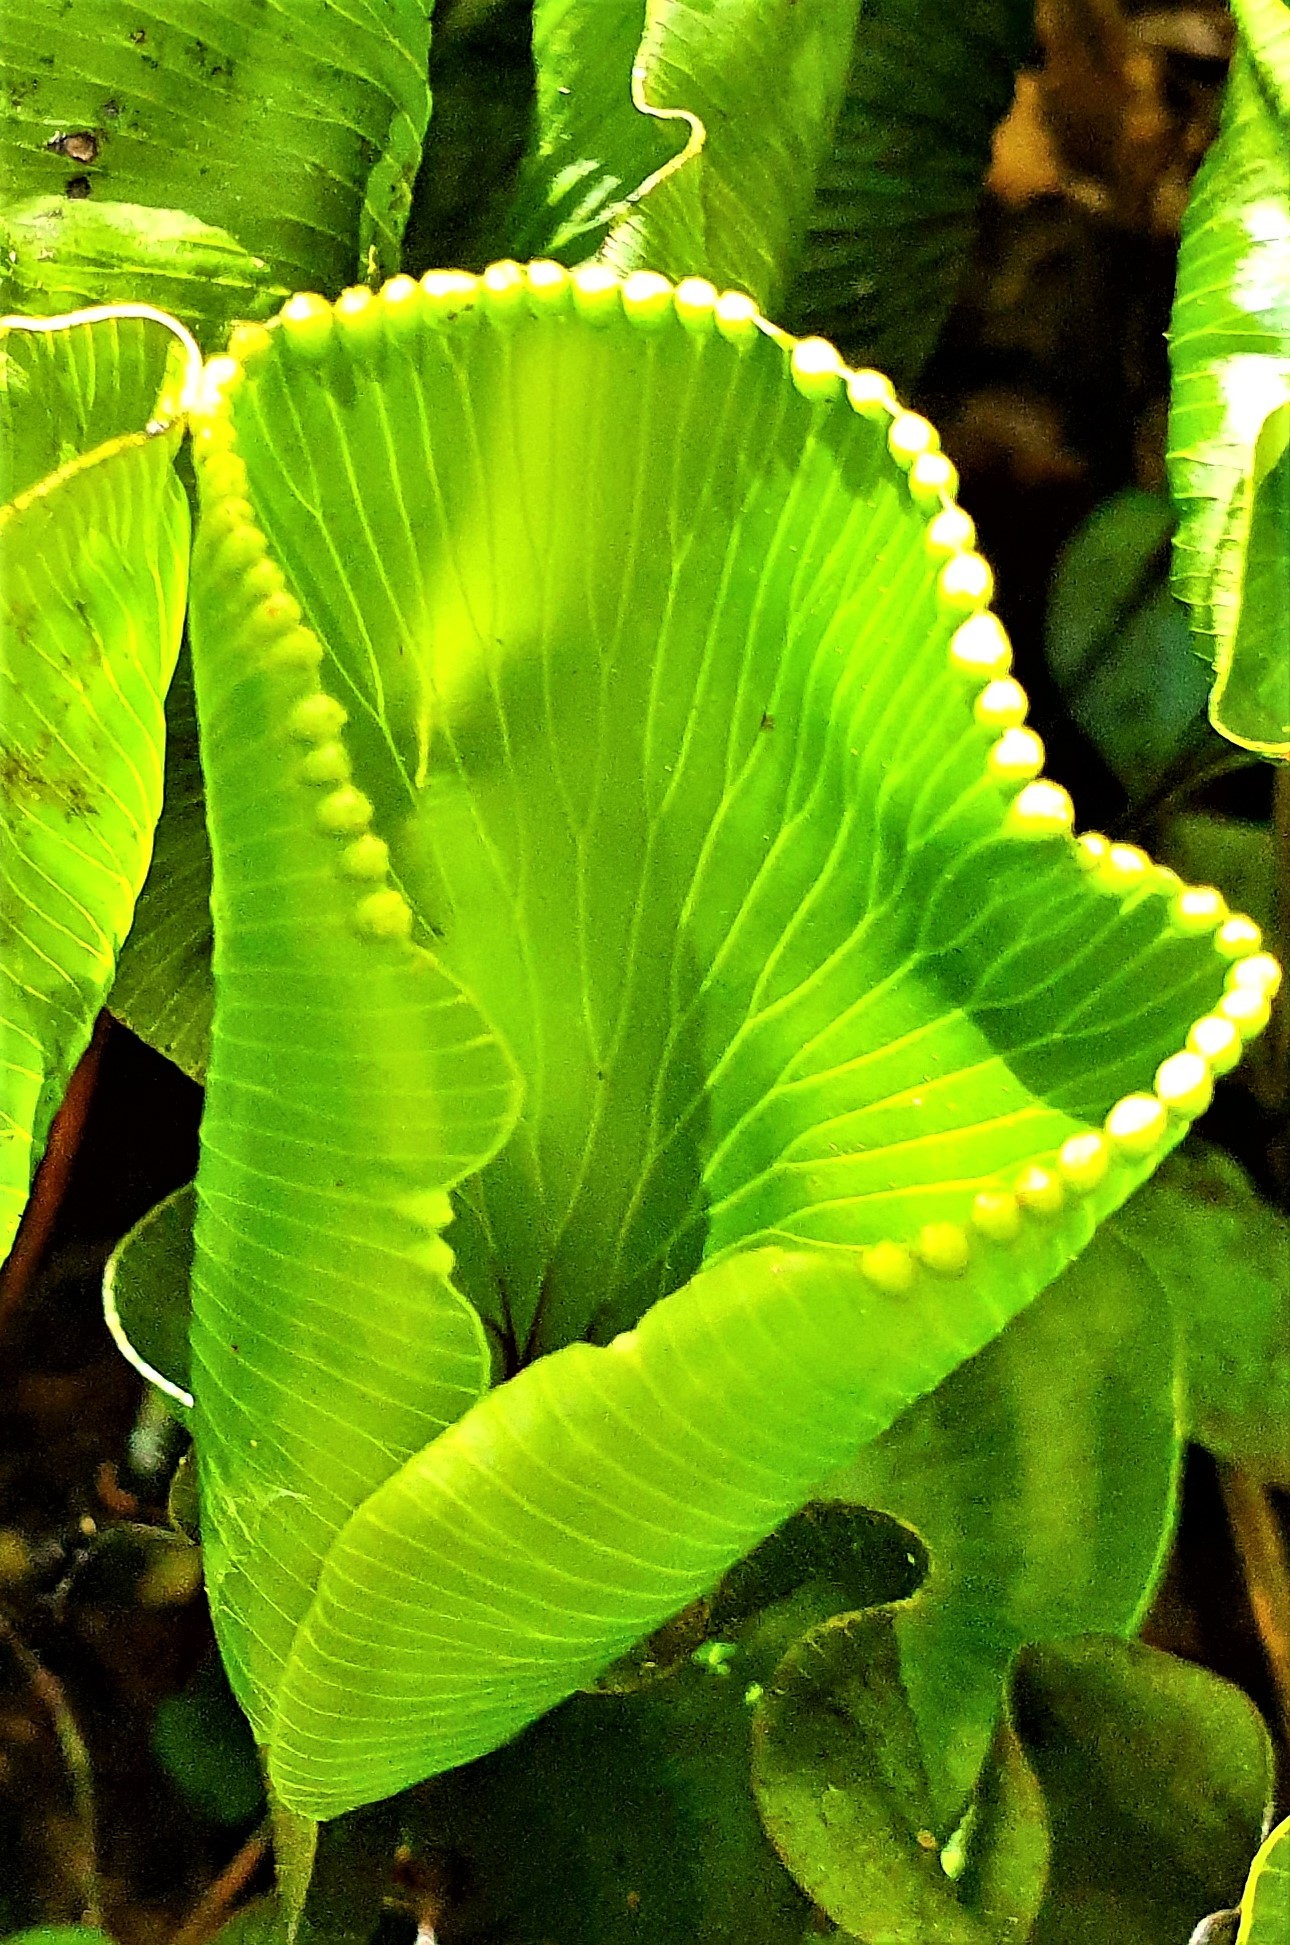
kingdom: Plantae
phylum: Tracheophyta
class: Polypodiopsida
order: Hymenophyllales
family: Hymenophyllaceae
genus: Hymenophyllum
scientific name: Hymenophyllum nephrophyllum
